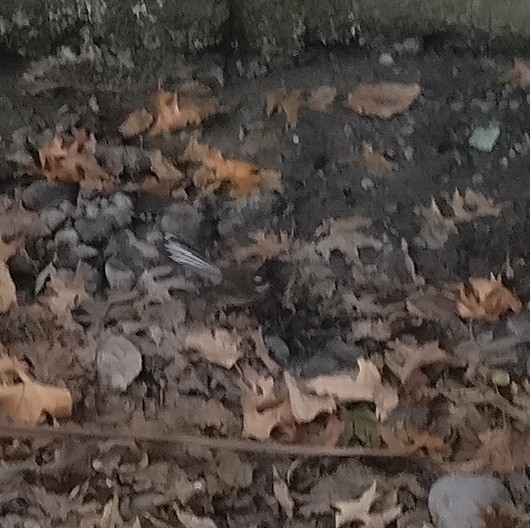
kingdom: Animalia
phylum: Chordata
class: Aves
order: Passeriformes
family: Rhipiduridae
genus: Rhipidura
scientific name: Rhipidura fuliginosa
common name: New zealand fantail
